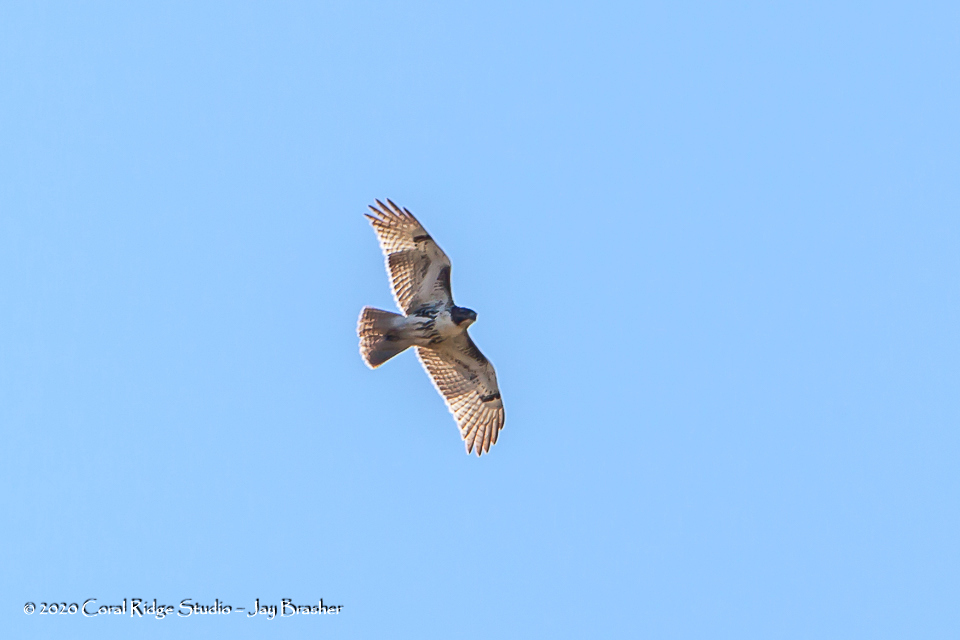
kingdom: Animalia
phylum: Chordata
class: Aves
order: Accipitriformes
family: Accipitridae
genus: Buteo
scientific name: Buteo jamaicensis
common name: Red-tailed hawk
